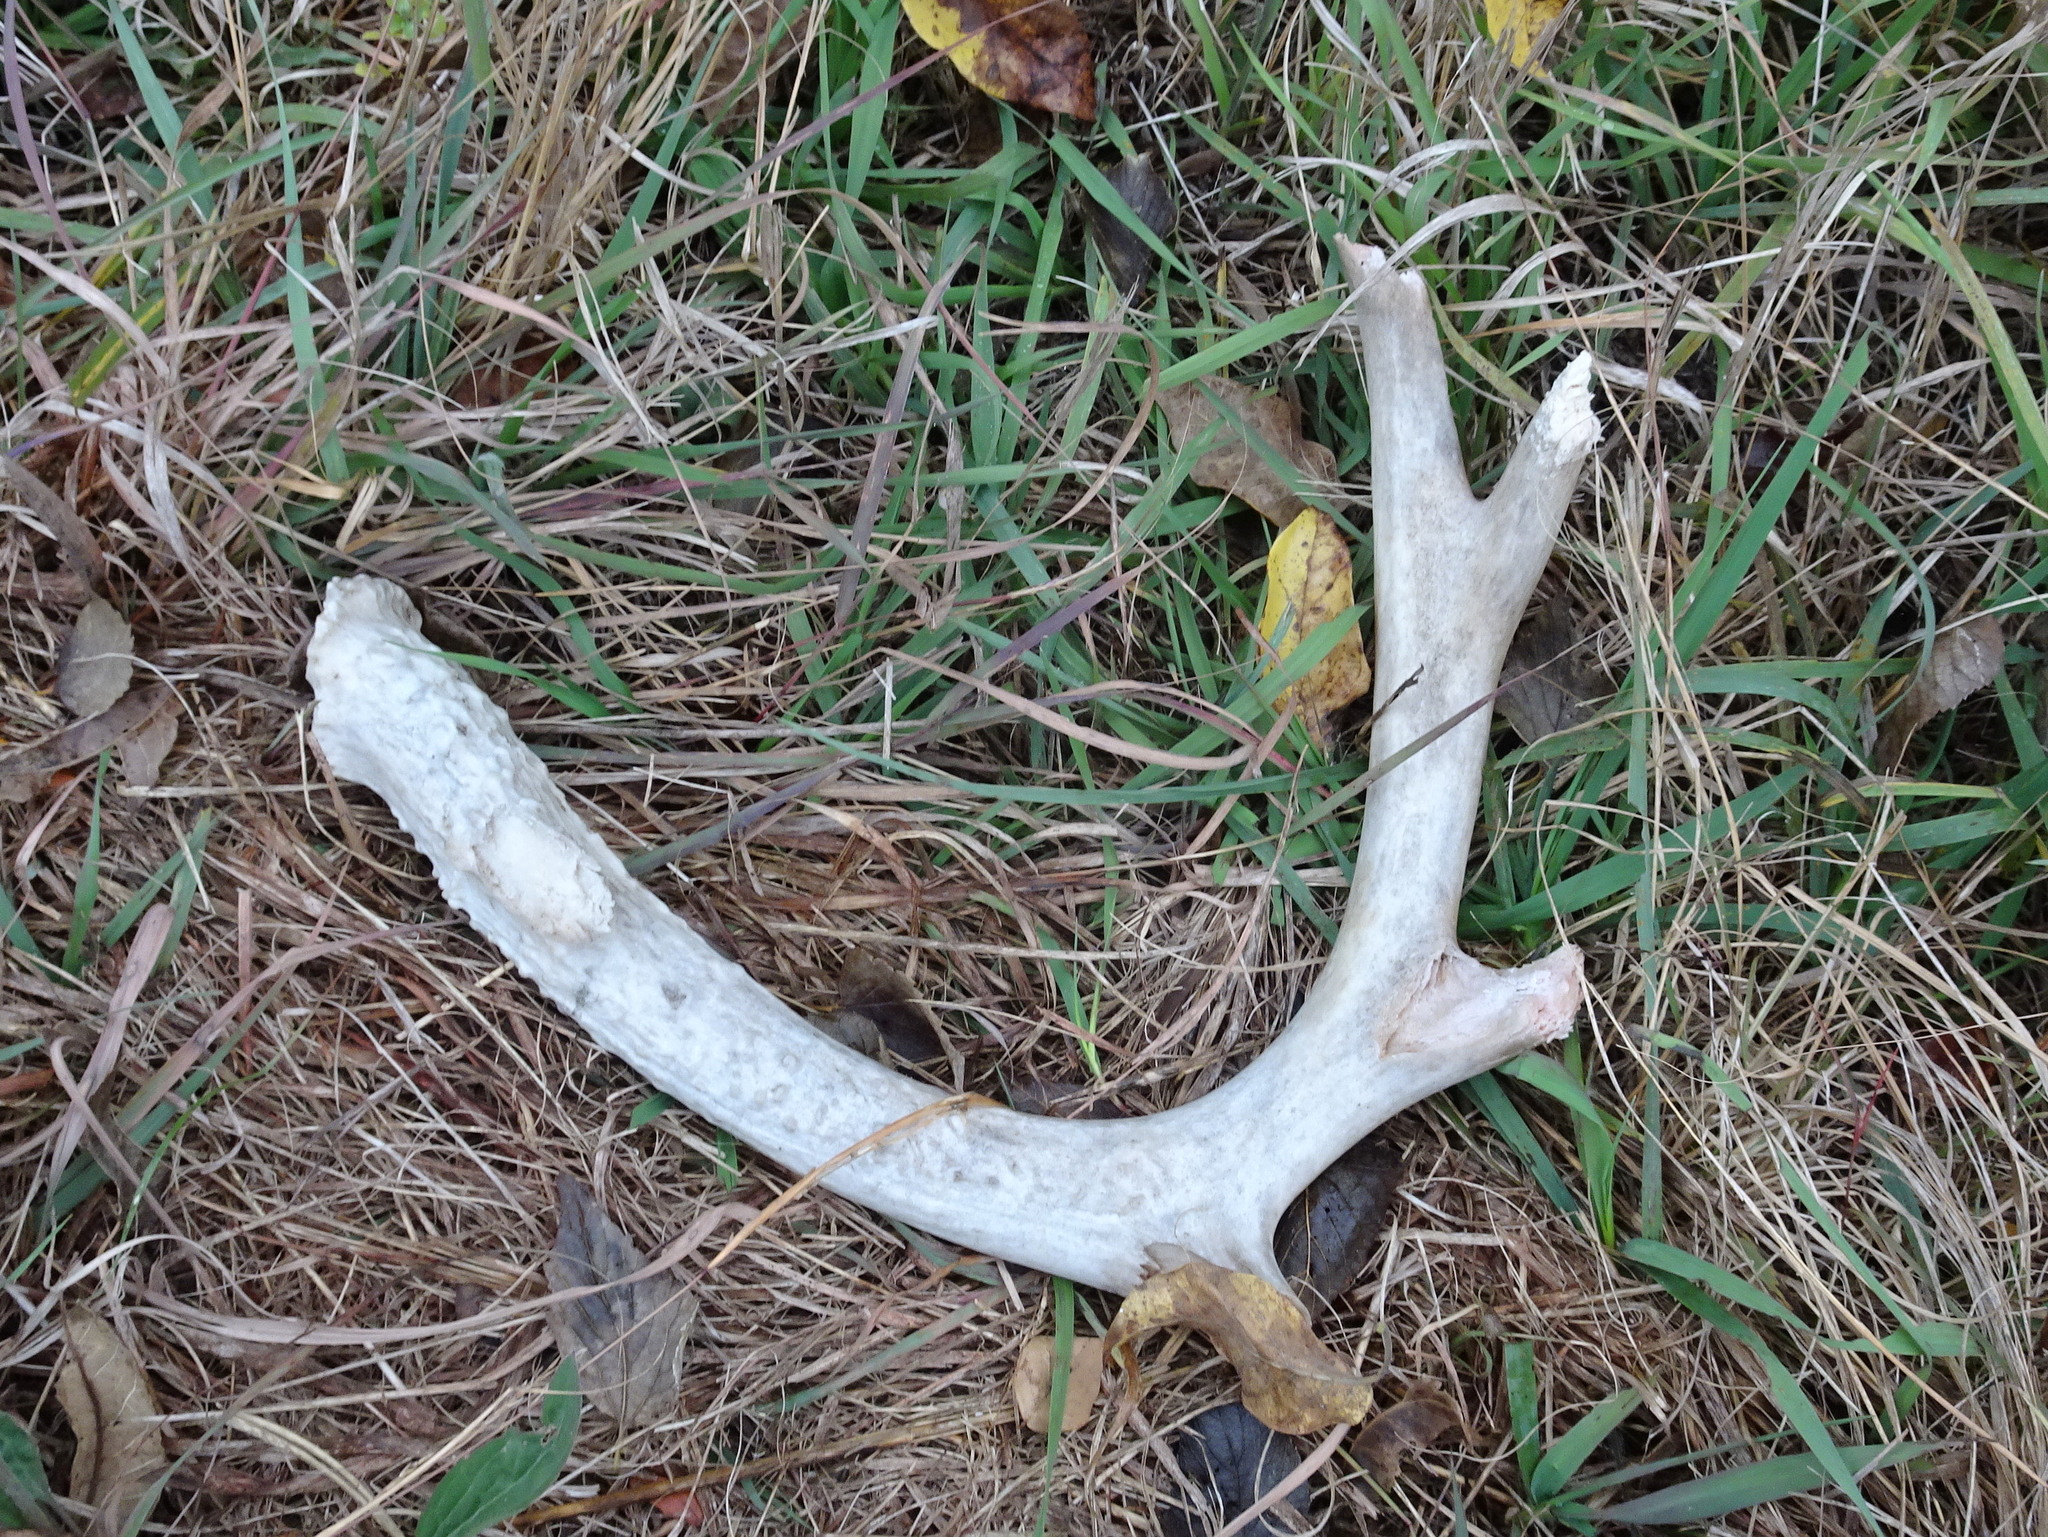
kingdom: Animalia
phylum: Chordata
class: Mammalia
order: Artiodactyla
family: Cervidae
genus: Odocoileus
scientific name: Odocoileus virginianus
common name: White-tailed deer
